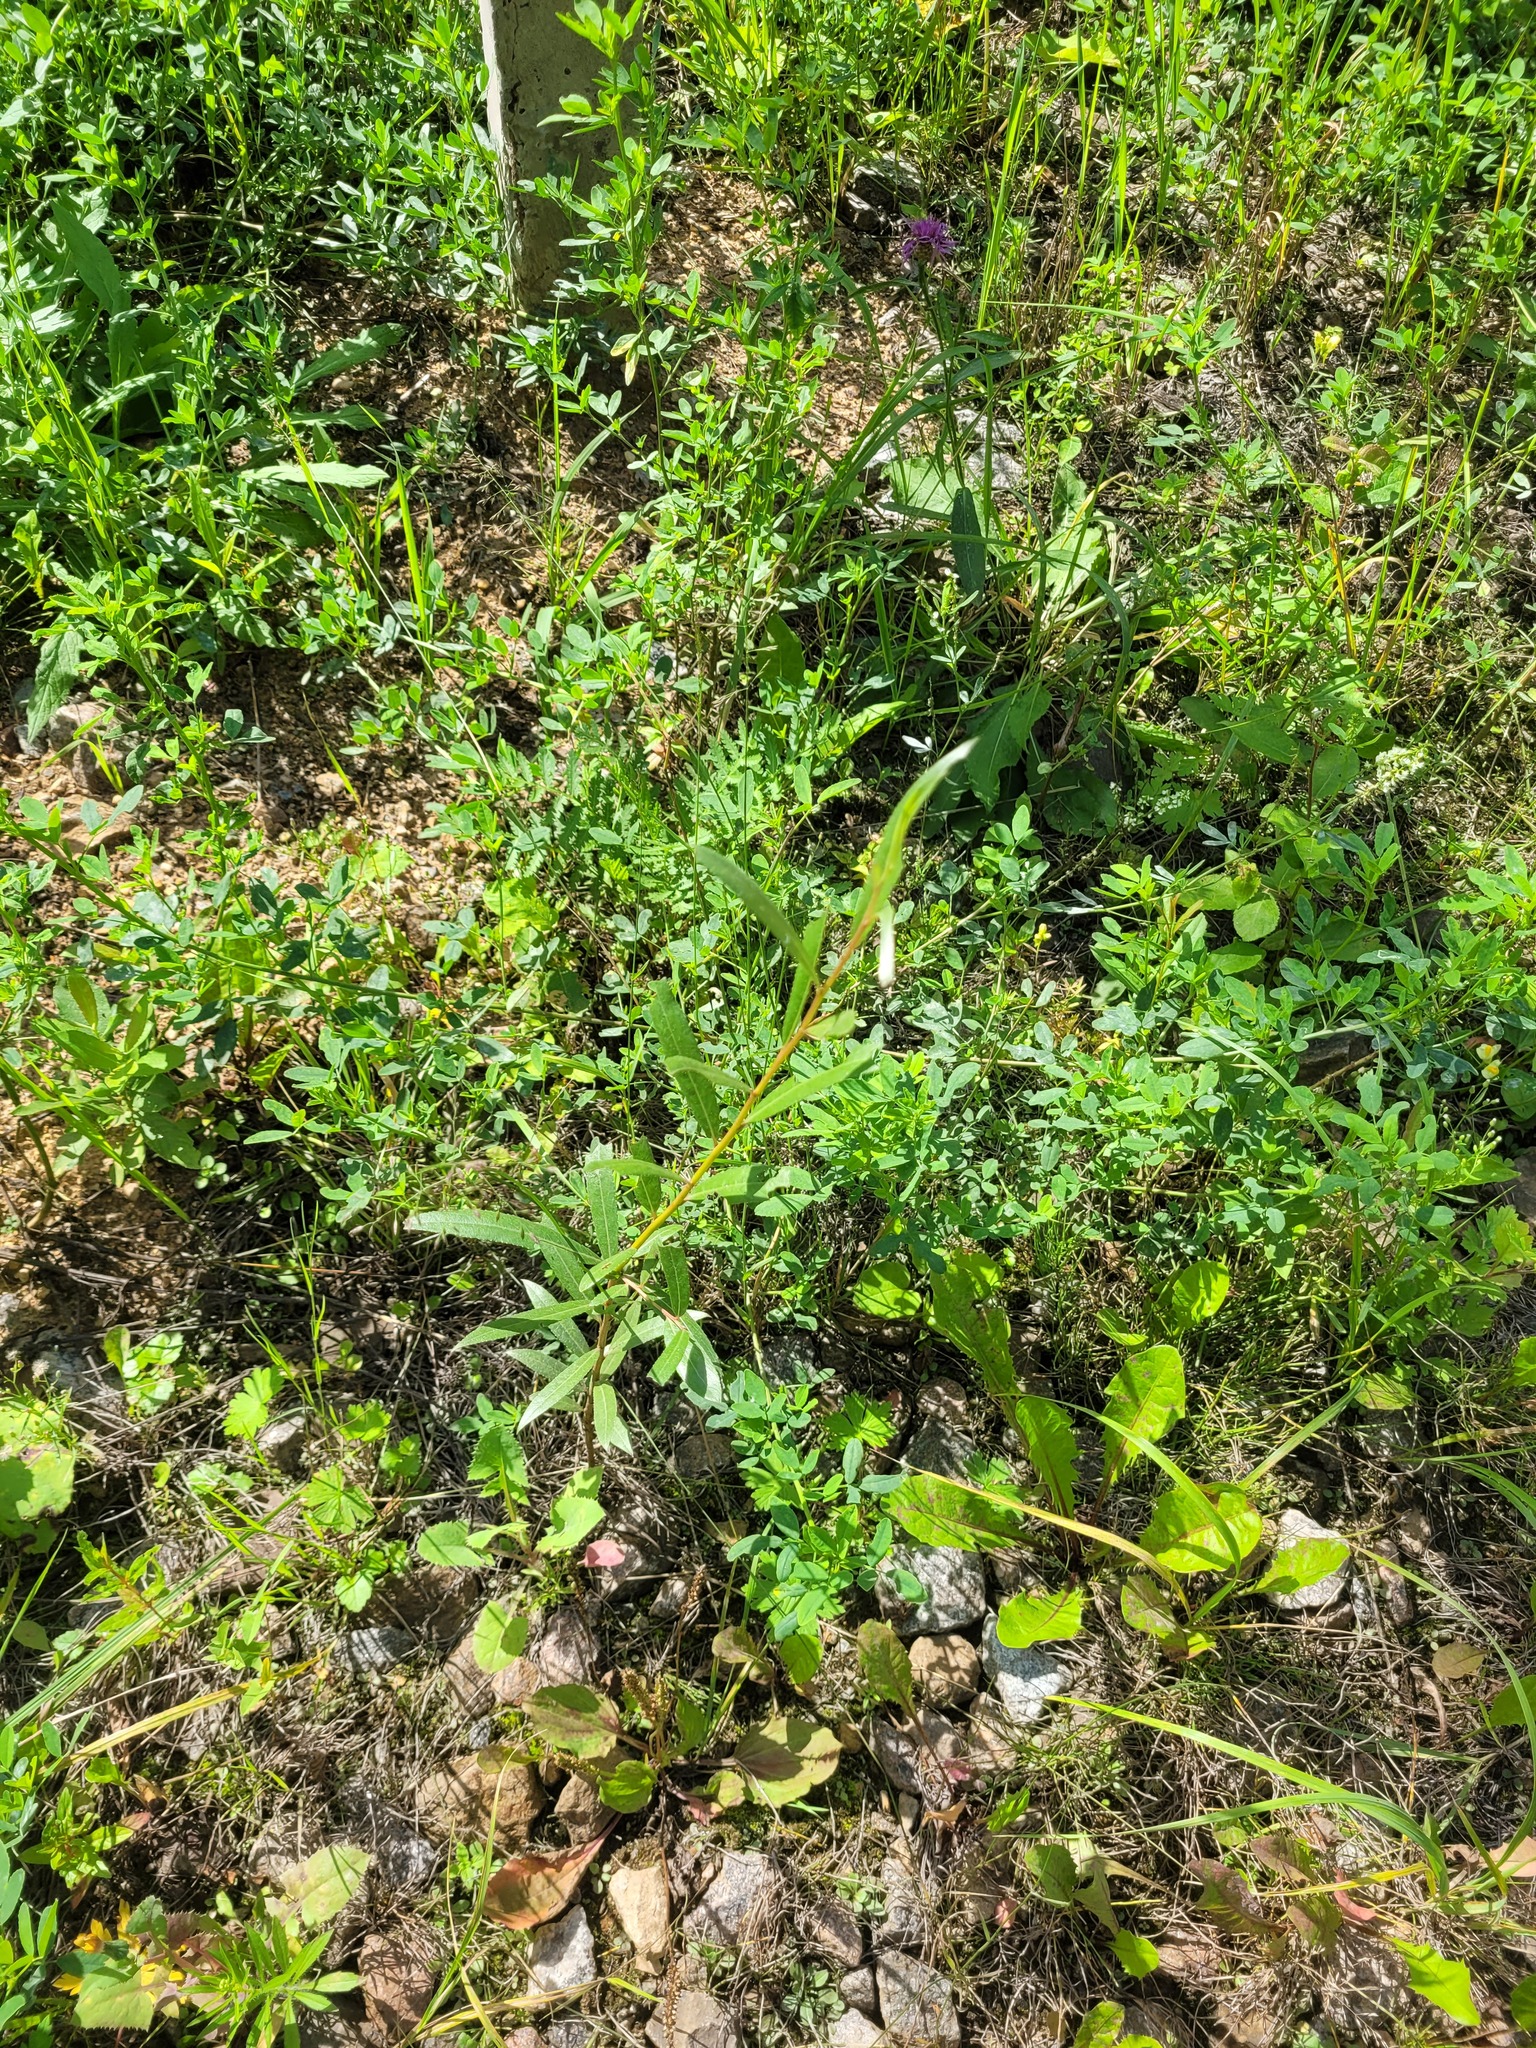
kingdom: Plantae
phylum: Tracheophyta
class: Magnoliopsida
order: Malpighiales
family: Salicaceae
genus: Salix
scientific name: Salix alba
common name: White willow
